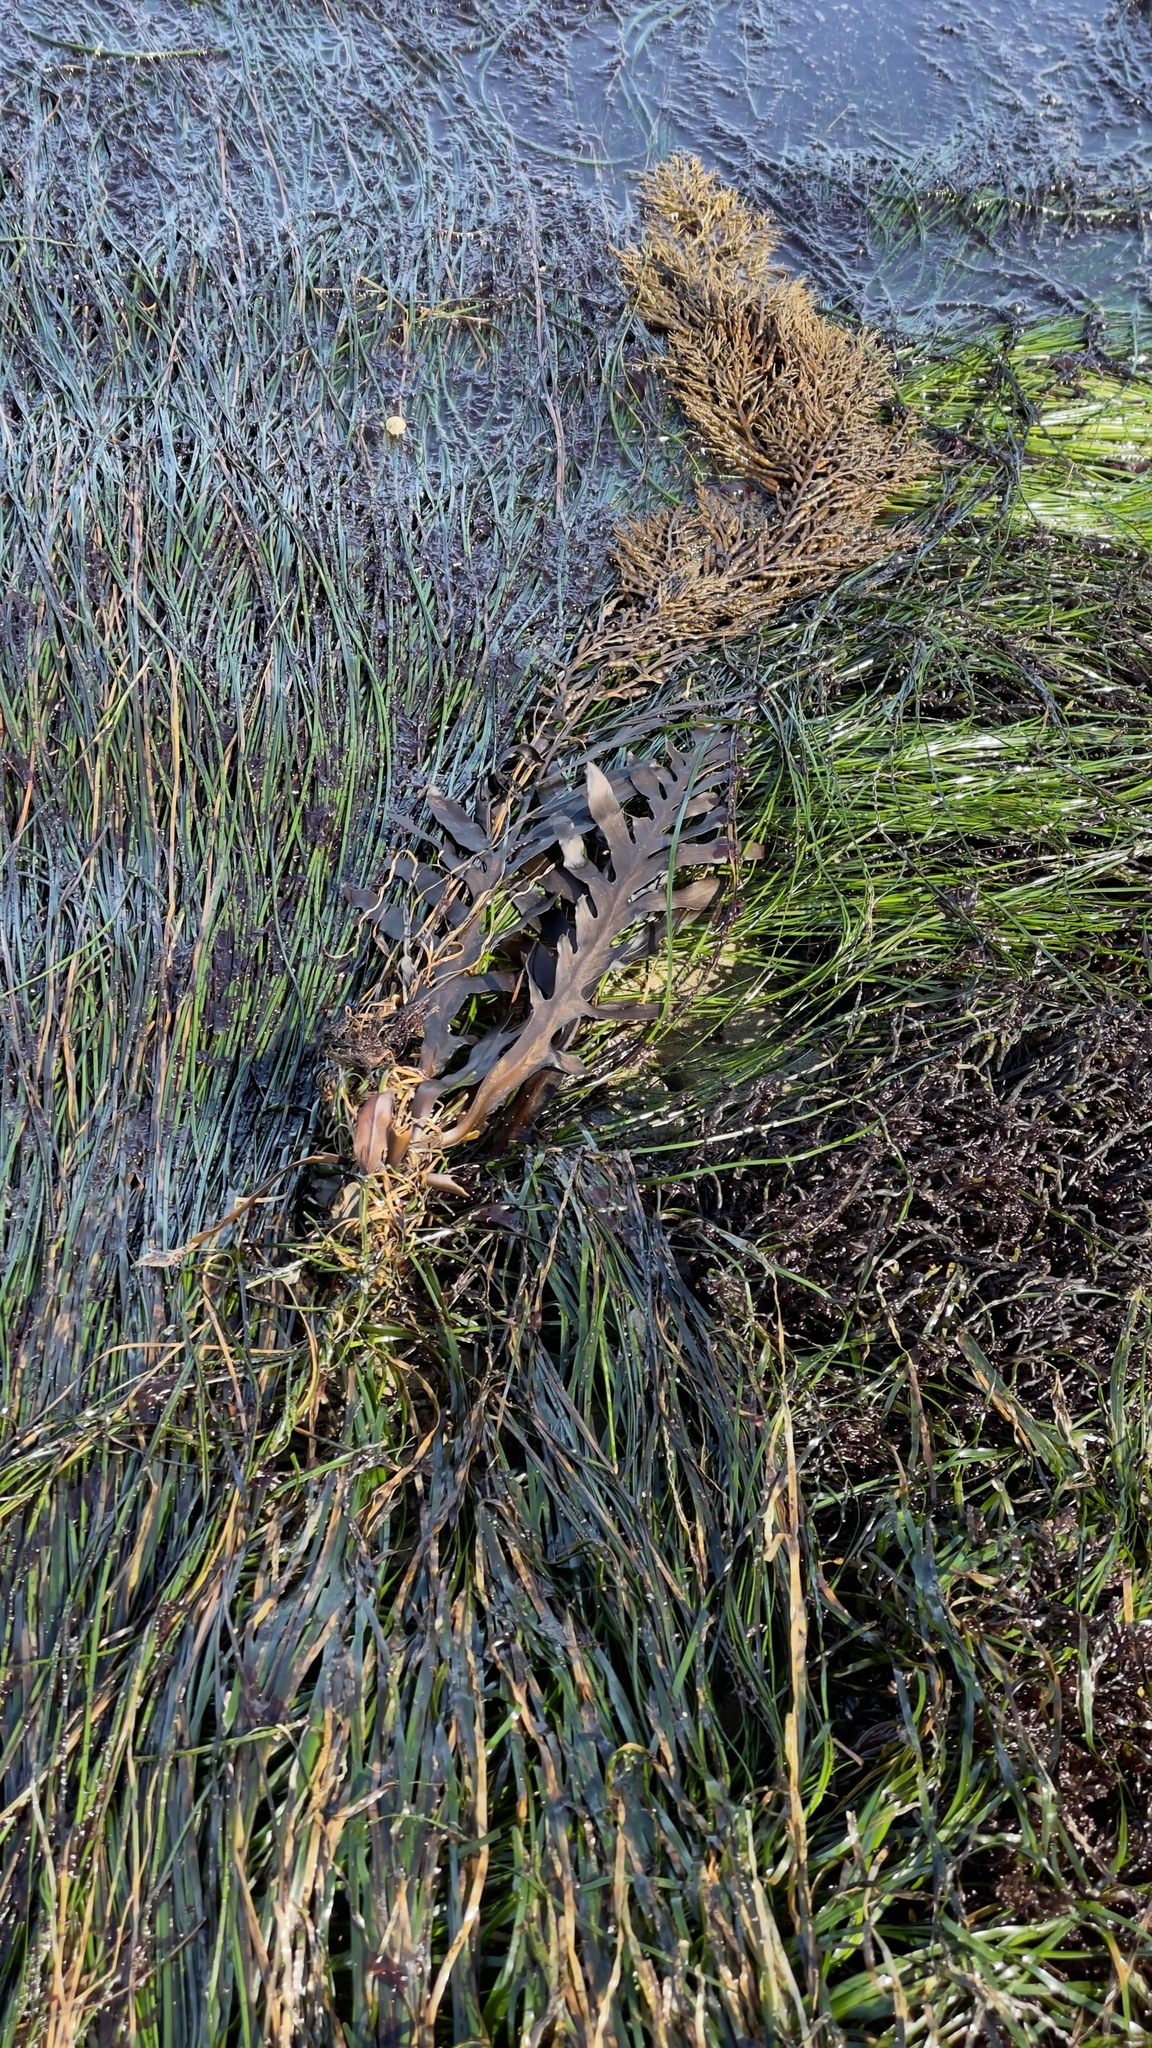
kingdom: Chromista
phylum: Ochrophyta
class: Phaeophyceae
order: Fucales
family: Sargassaceae
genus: Stephanocystis
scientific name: Stephanocystis
